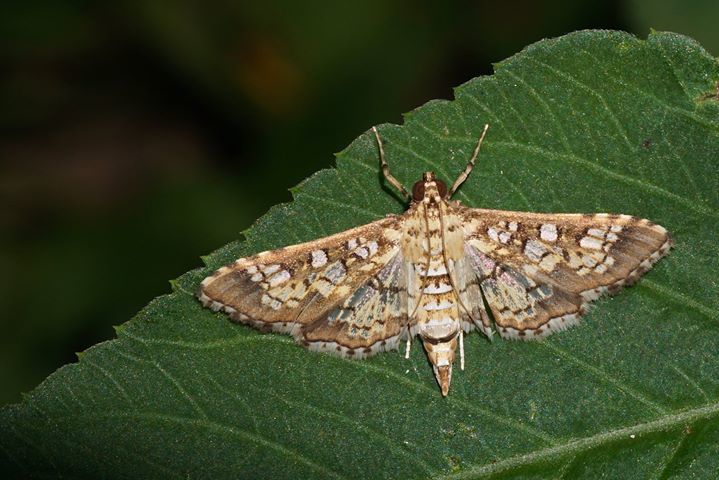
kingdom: Animalia
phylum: Arthropoda
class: Insecta
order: Lepidoptera
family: Crambidae
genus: Samea
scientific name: Samea ecclesialis
